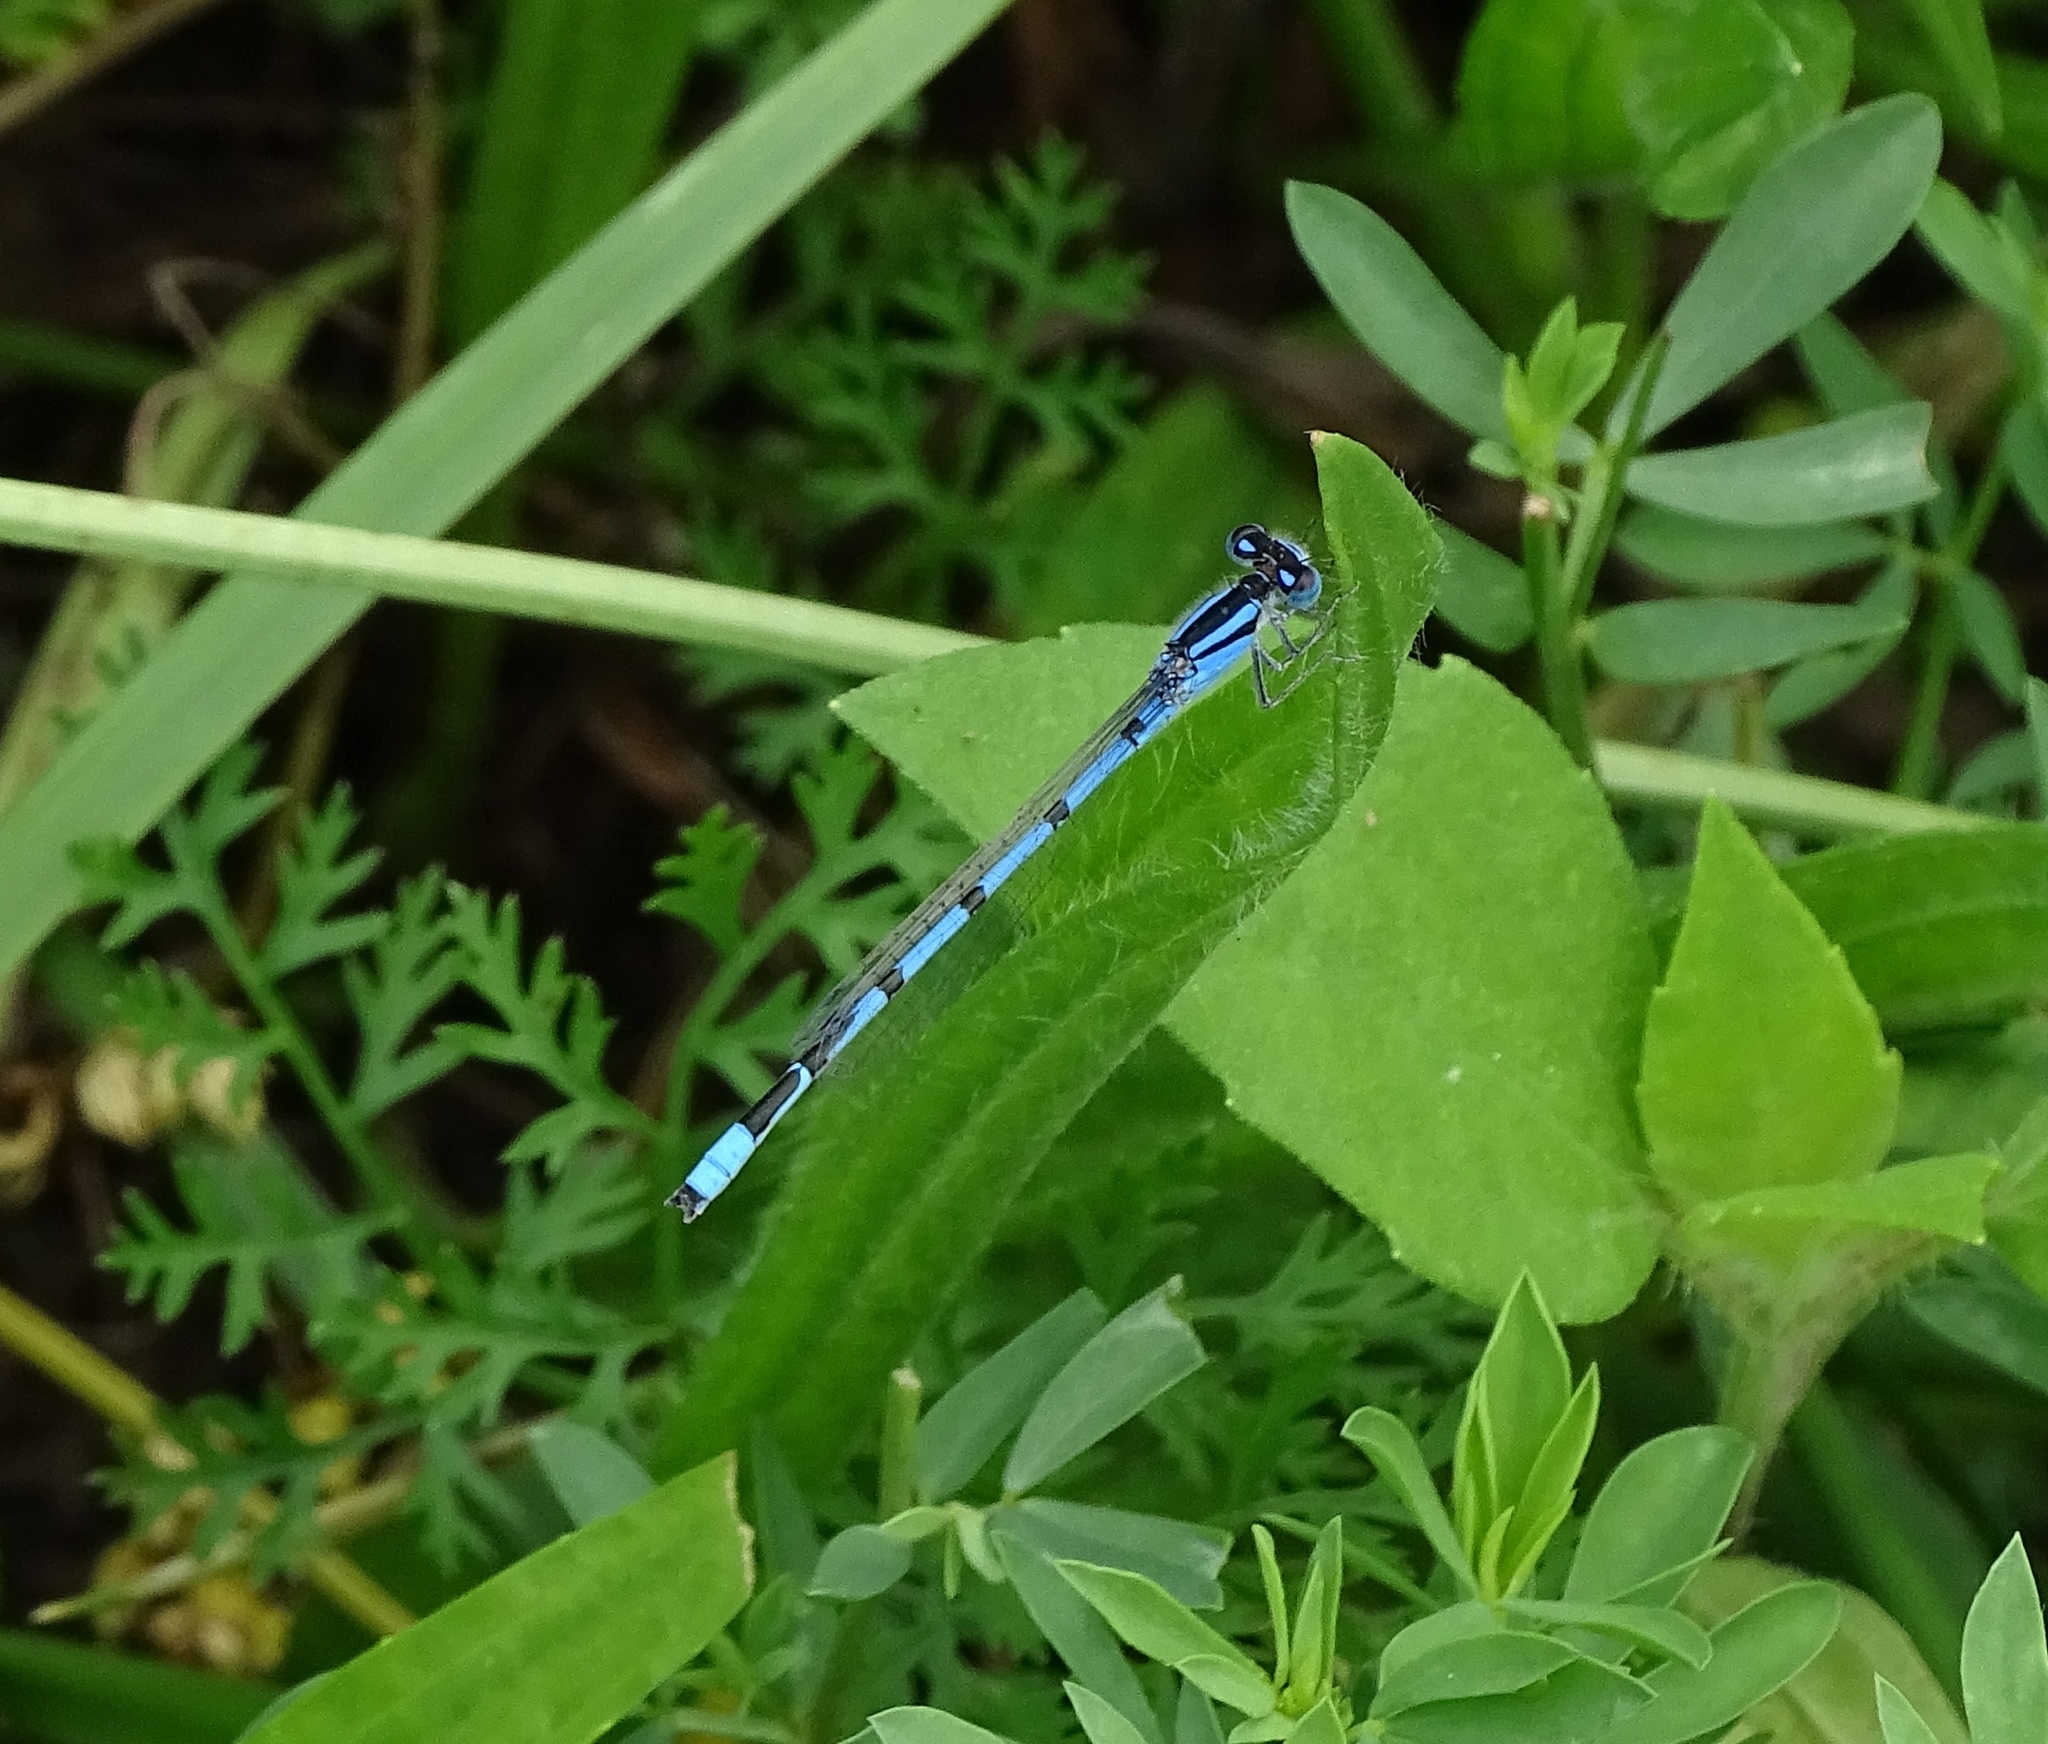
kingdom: Animalia
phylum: Arthropoda
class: Insecta
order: Odonata
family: Coenagrionidae
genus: Enallagma
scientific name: Enallagma civile
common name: Damselfly
